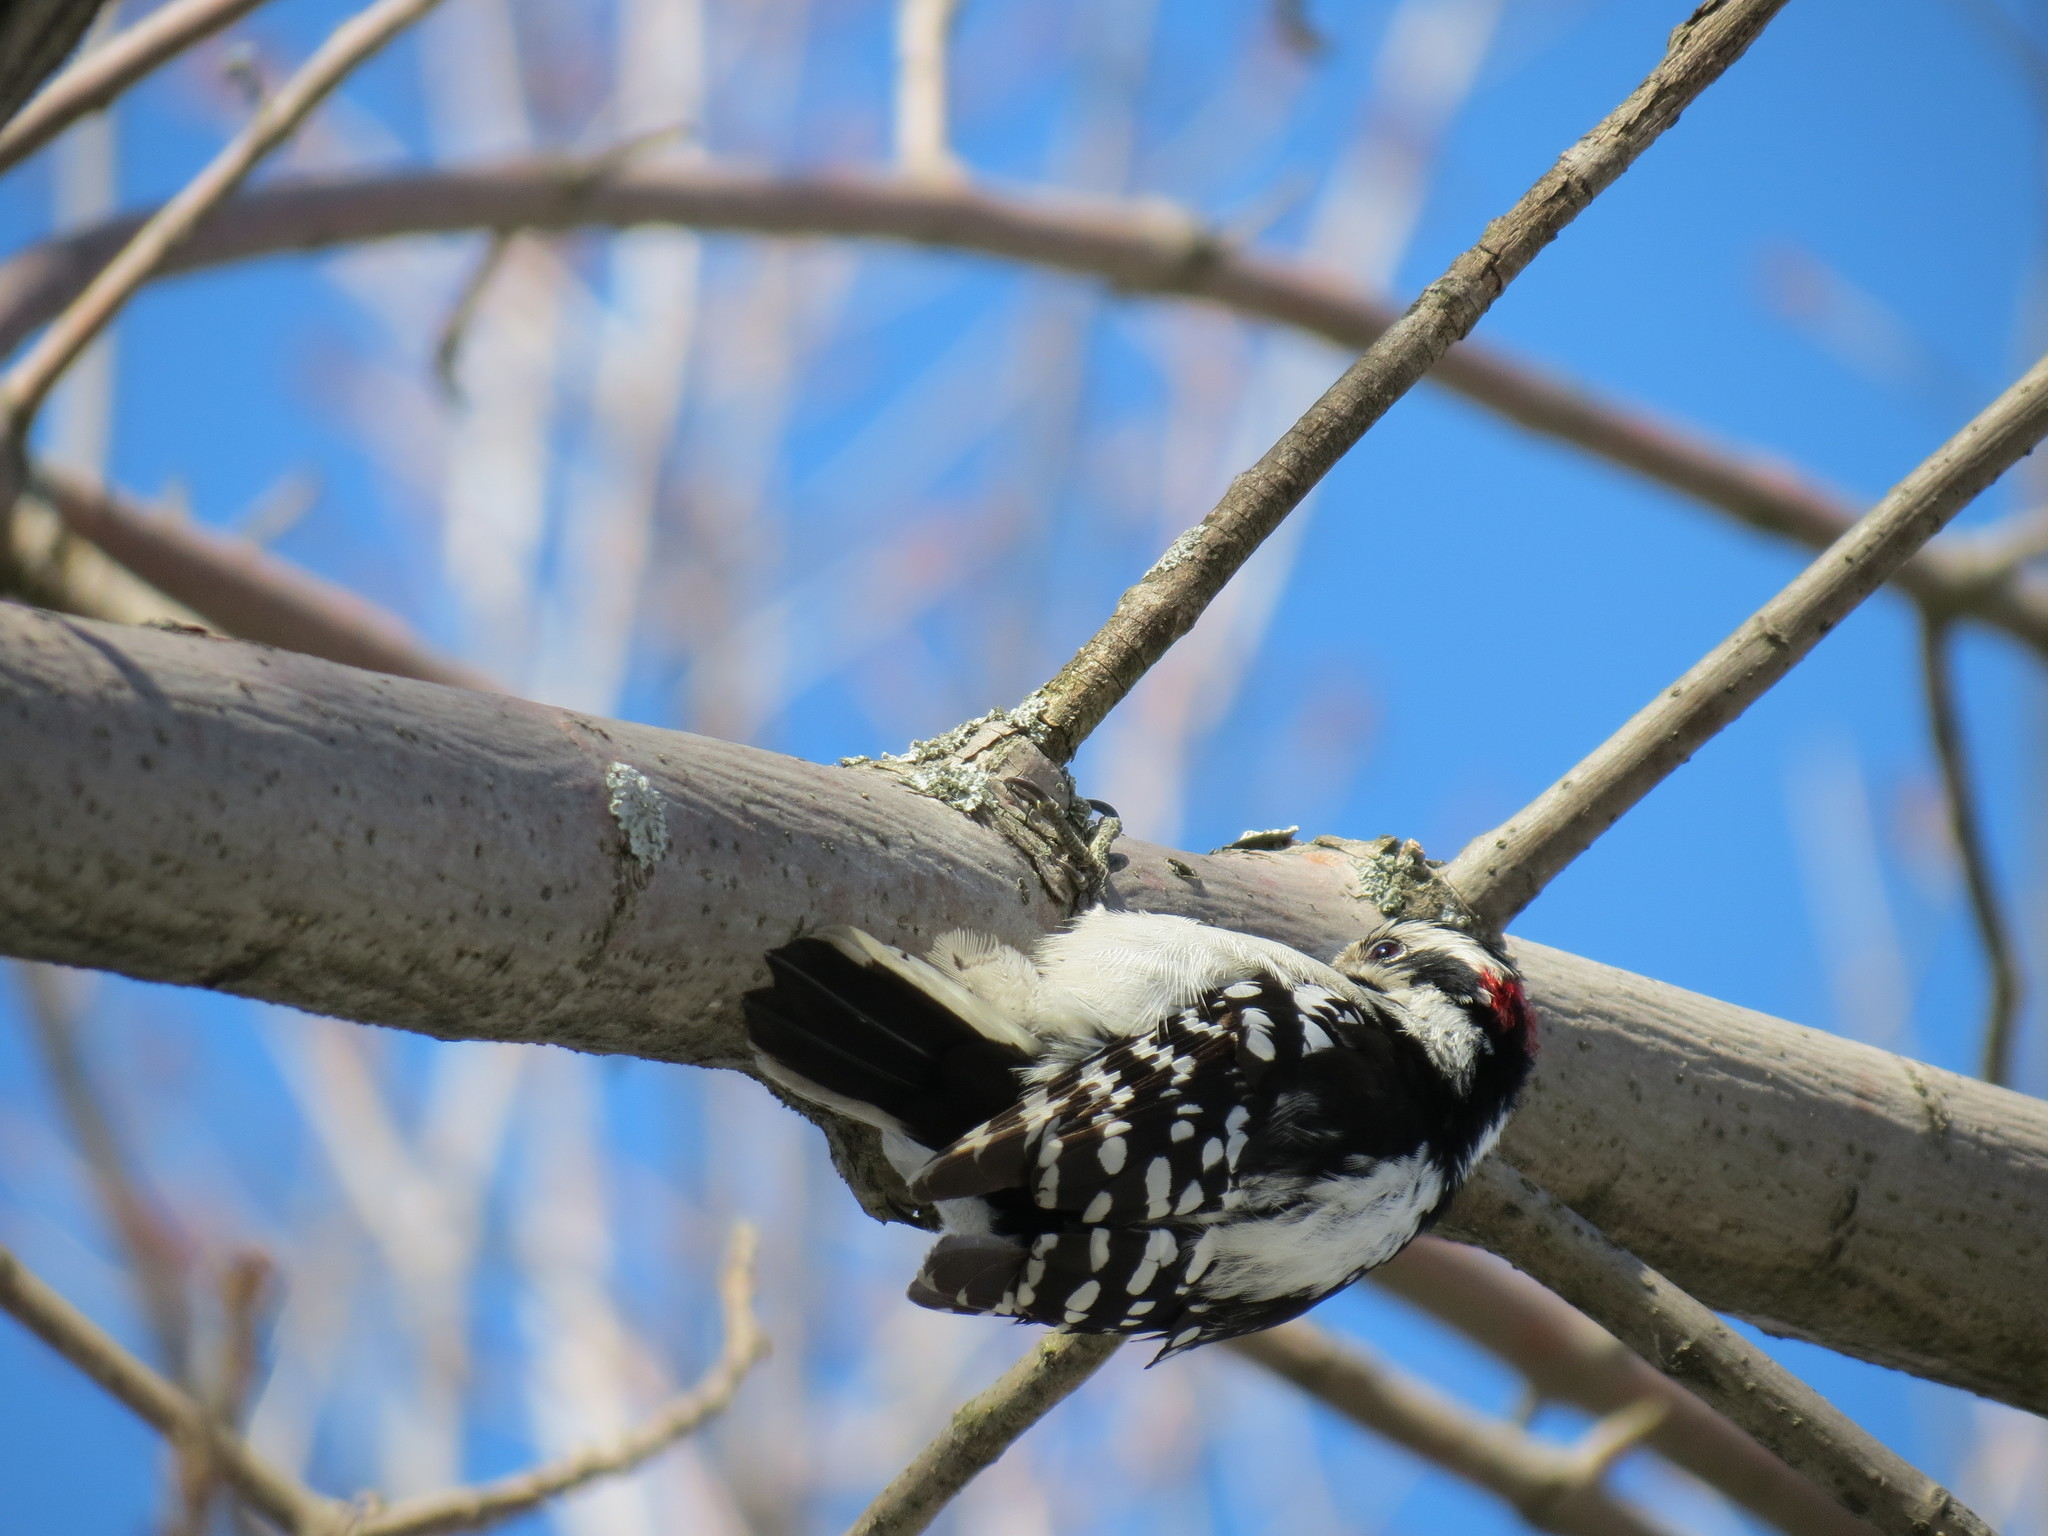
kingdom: Animalia
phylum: Chordata
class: Aves
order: Piciformes
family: Picidae
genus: Dryobates
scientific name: Dryobates pubescens
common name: Downy woodpecker
